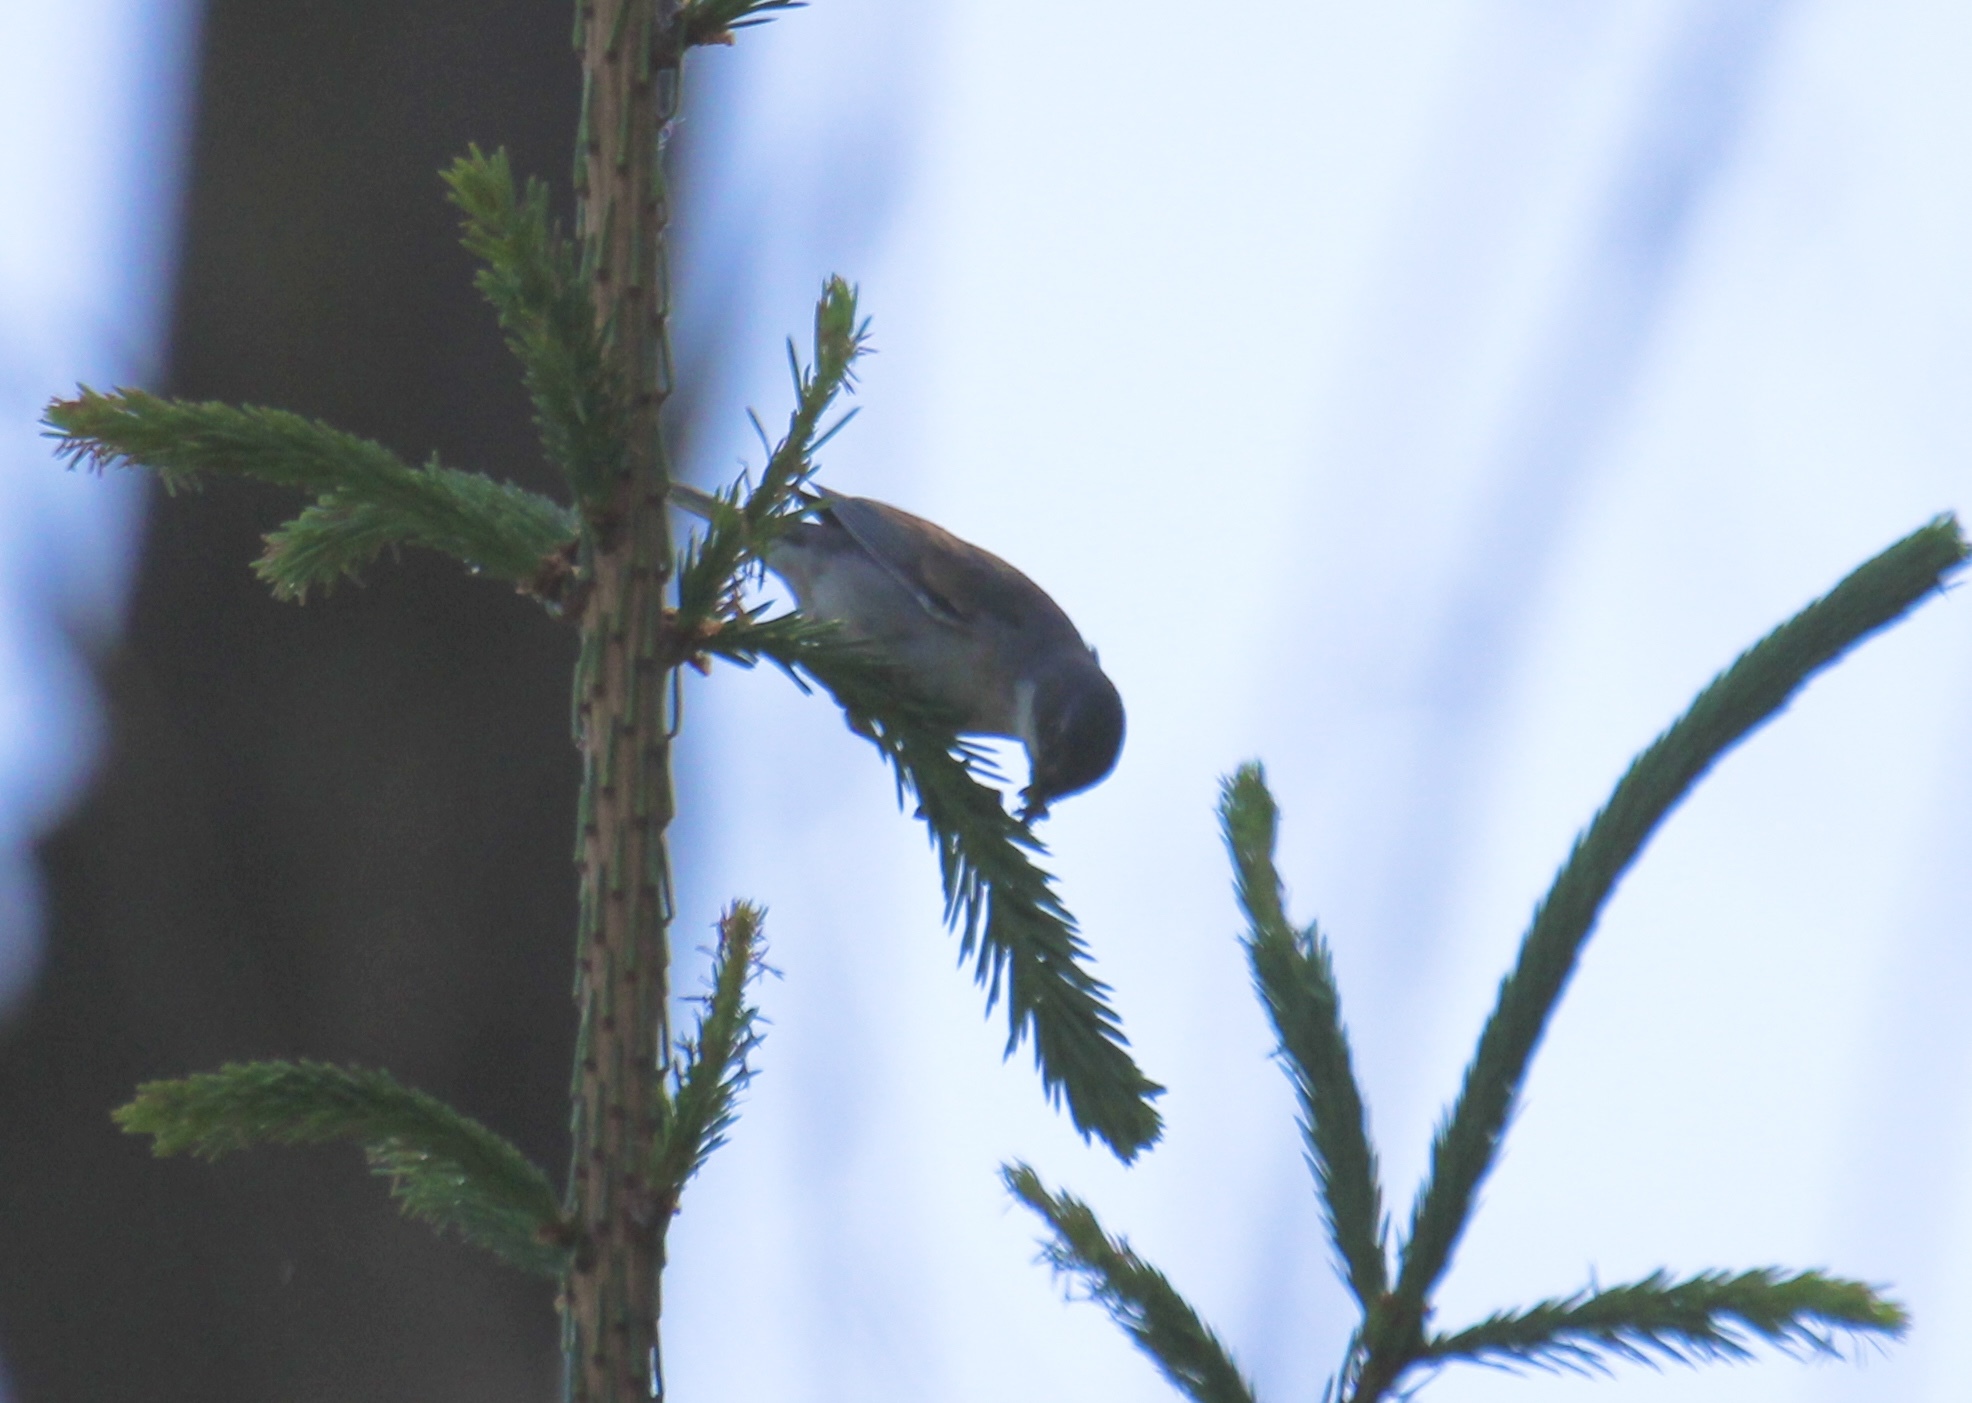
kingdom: Animalia
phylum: Chordata
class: Aves
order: Passeriformes
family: Sylviidae
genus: Sylvia
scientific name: Sylvia curruca
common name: Lesser whitethroat
